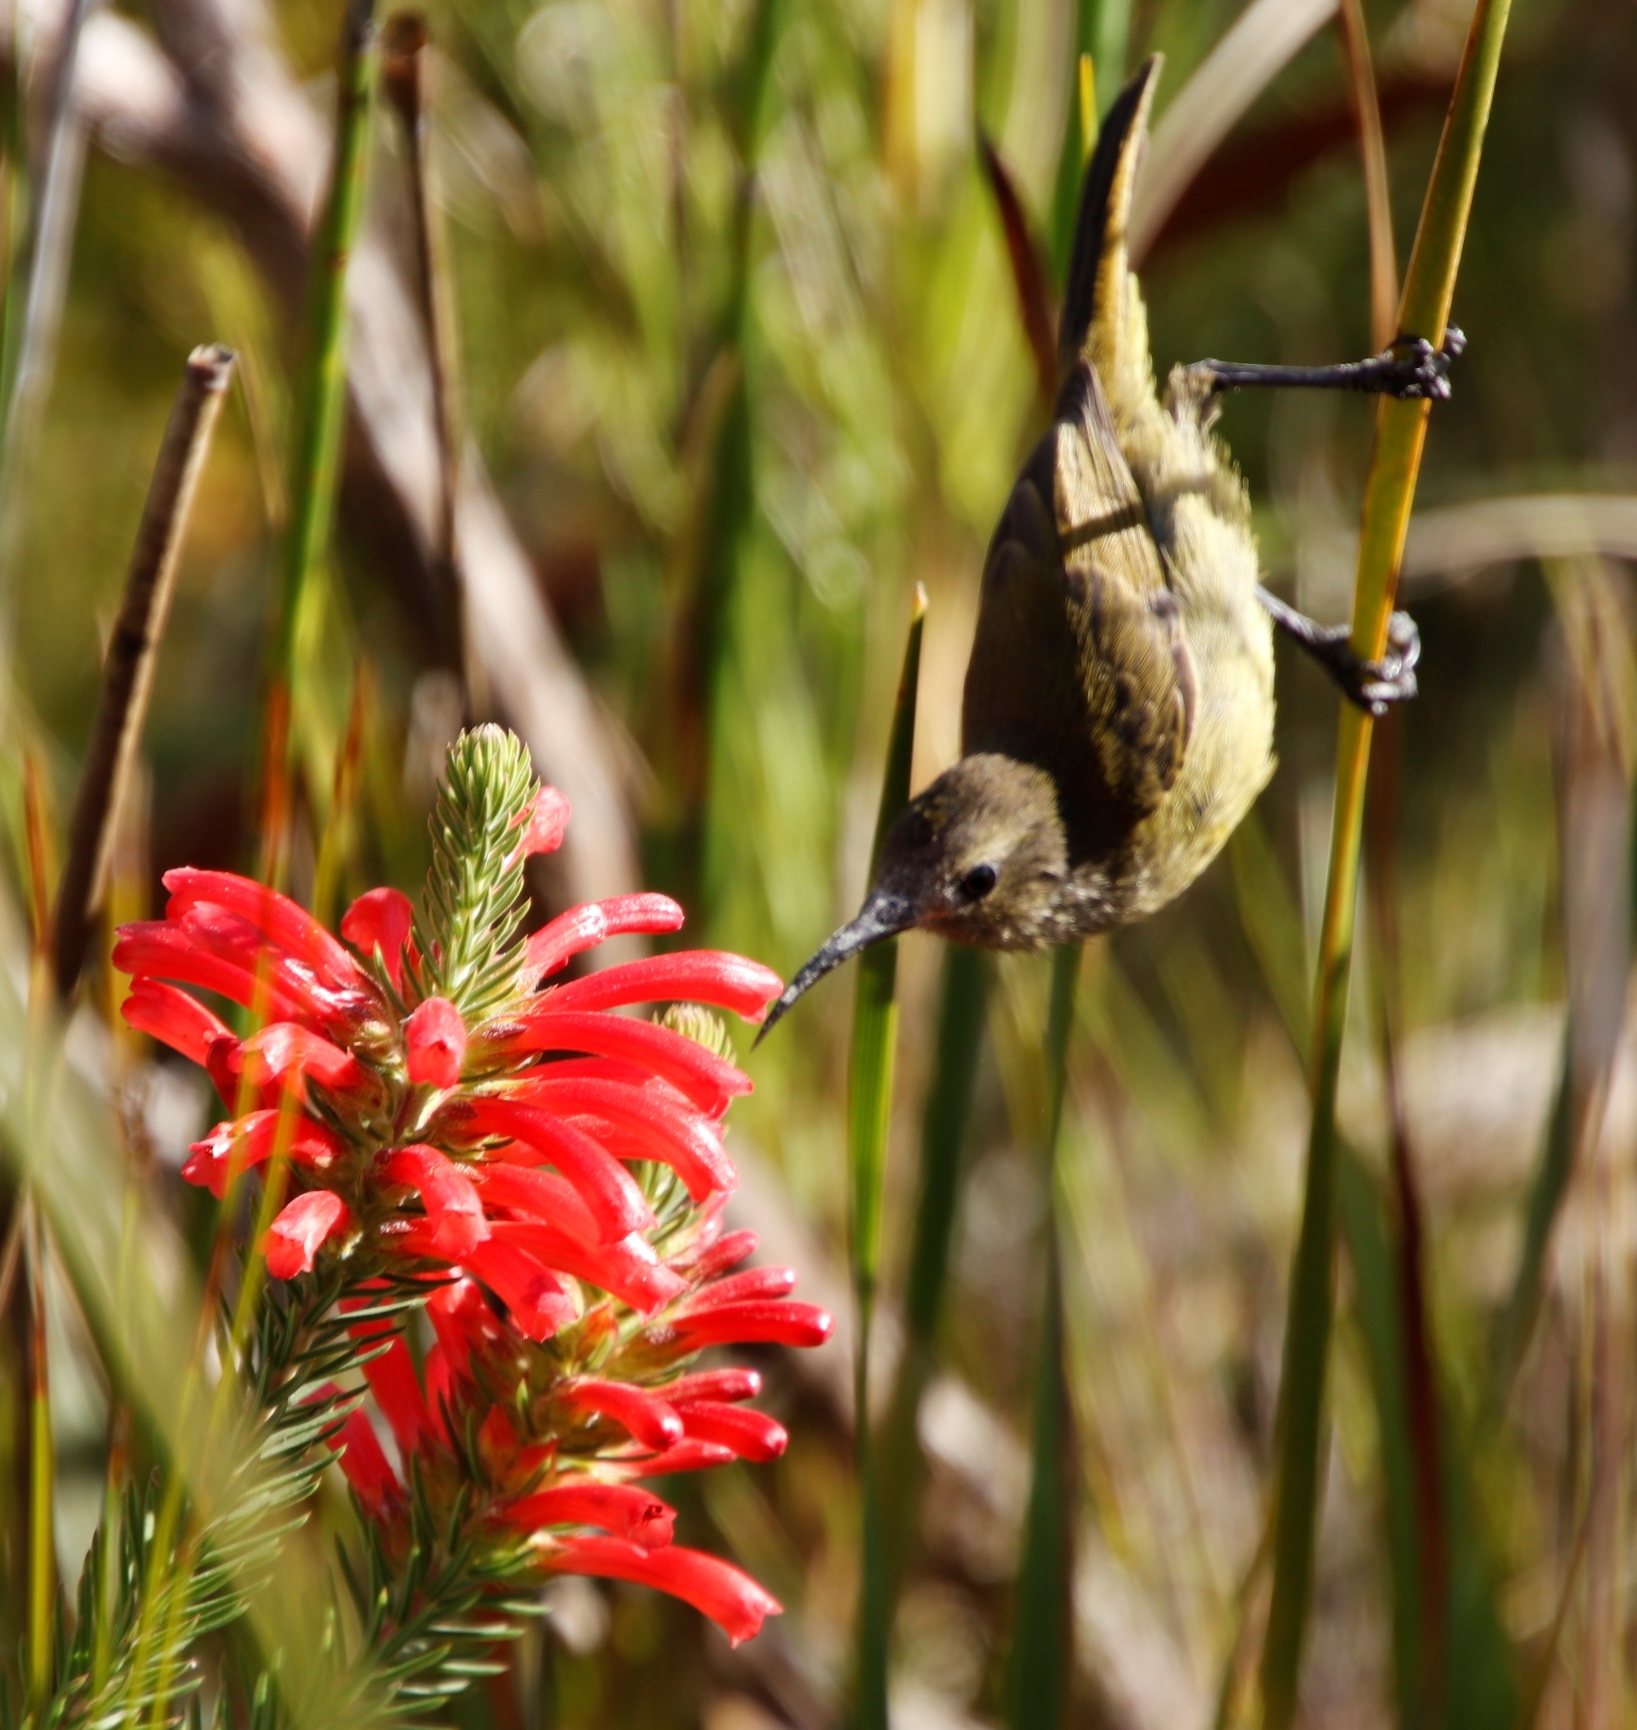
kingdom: Animalia
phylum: Chordata
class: Aves
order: Passeriformes
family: Nectariniidae
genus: Anthobaphes
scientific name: Anthobaphes violacea
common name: Orange-breasted sunbird
